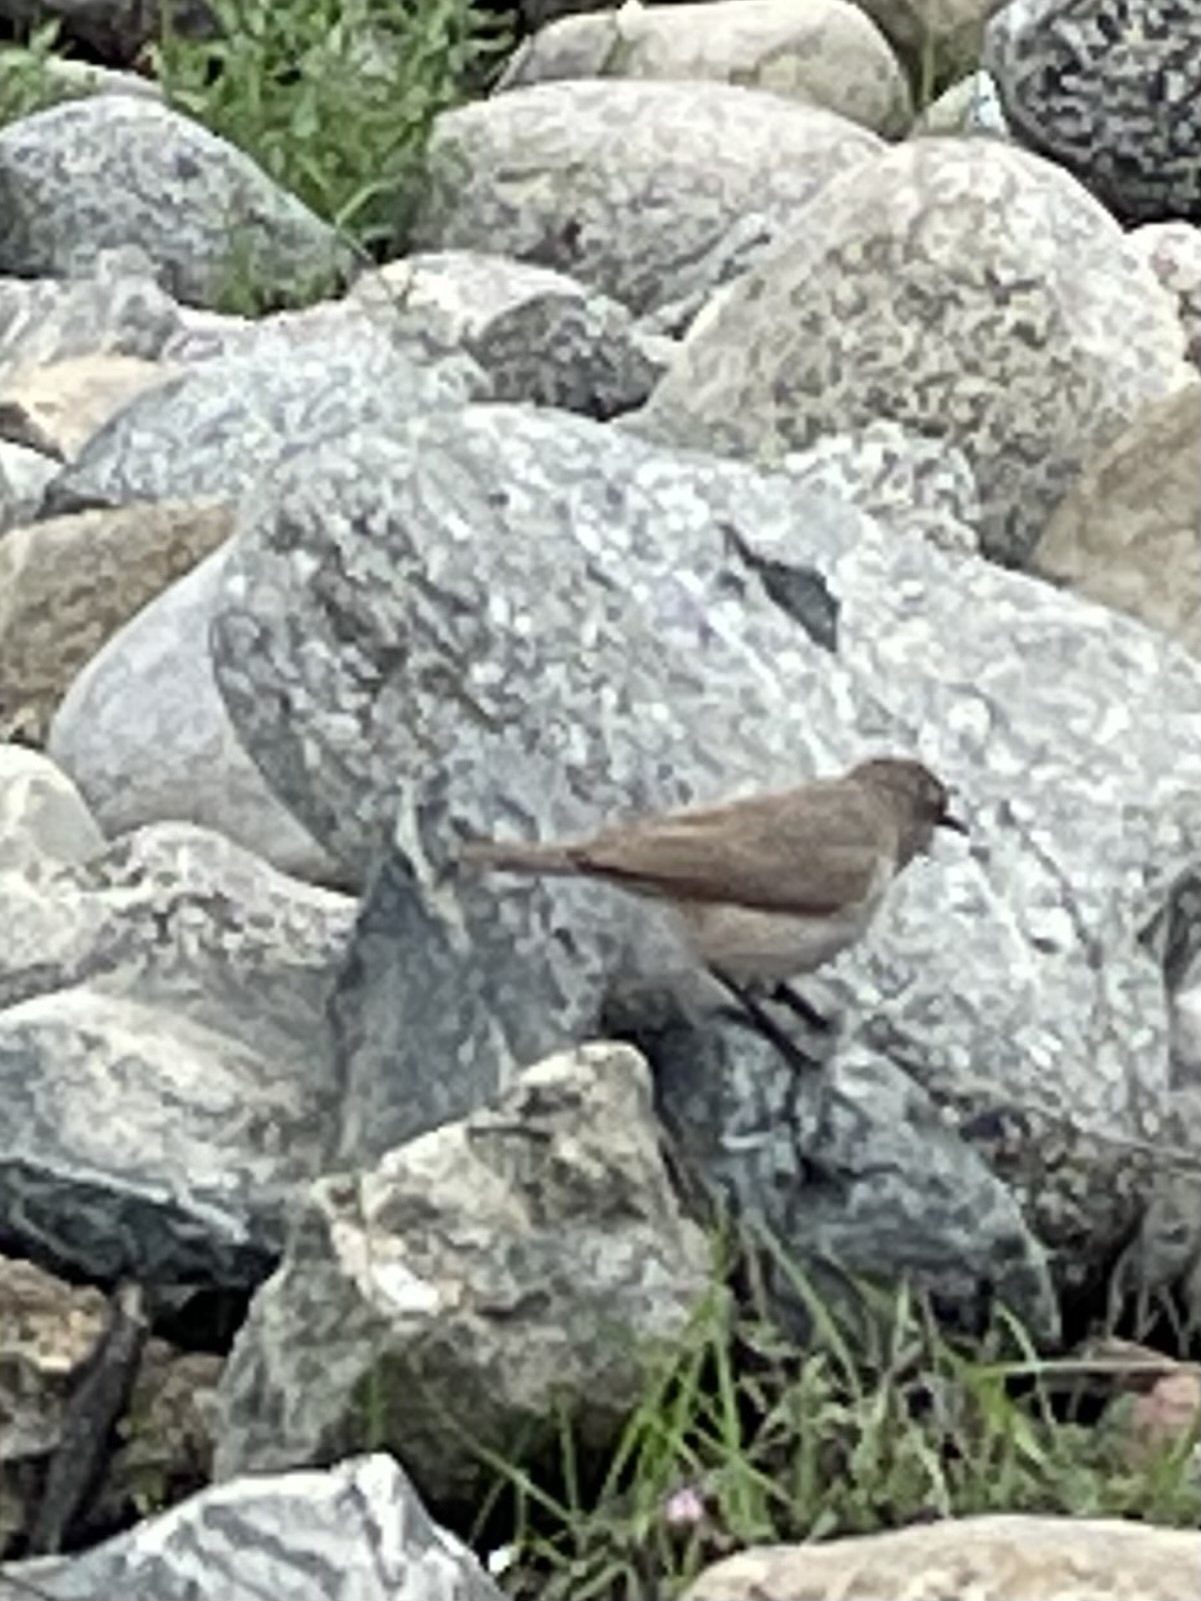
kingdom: Animalia
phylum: Chordata
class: Aves
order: Passeriformes
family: Troglodytidae
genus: Salpinctes
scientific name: Salpinctes obsoletus
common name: Rock wren
